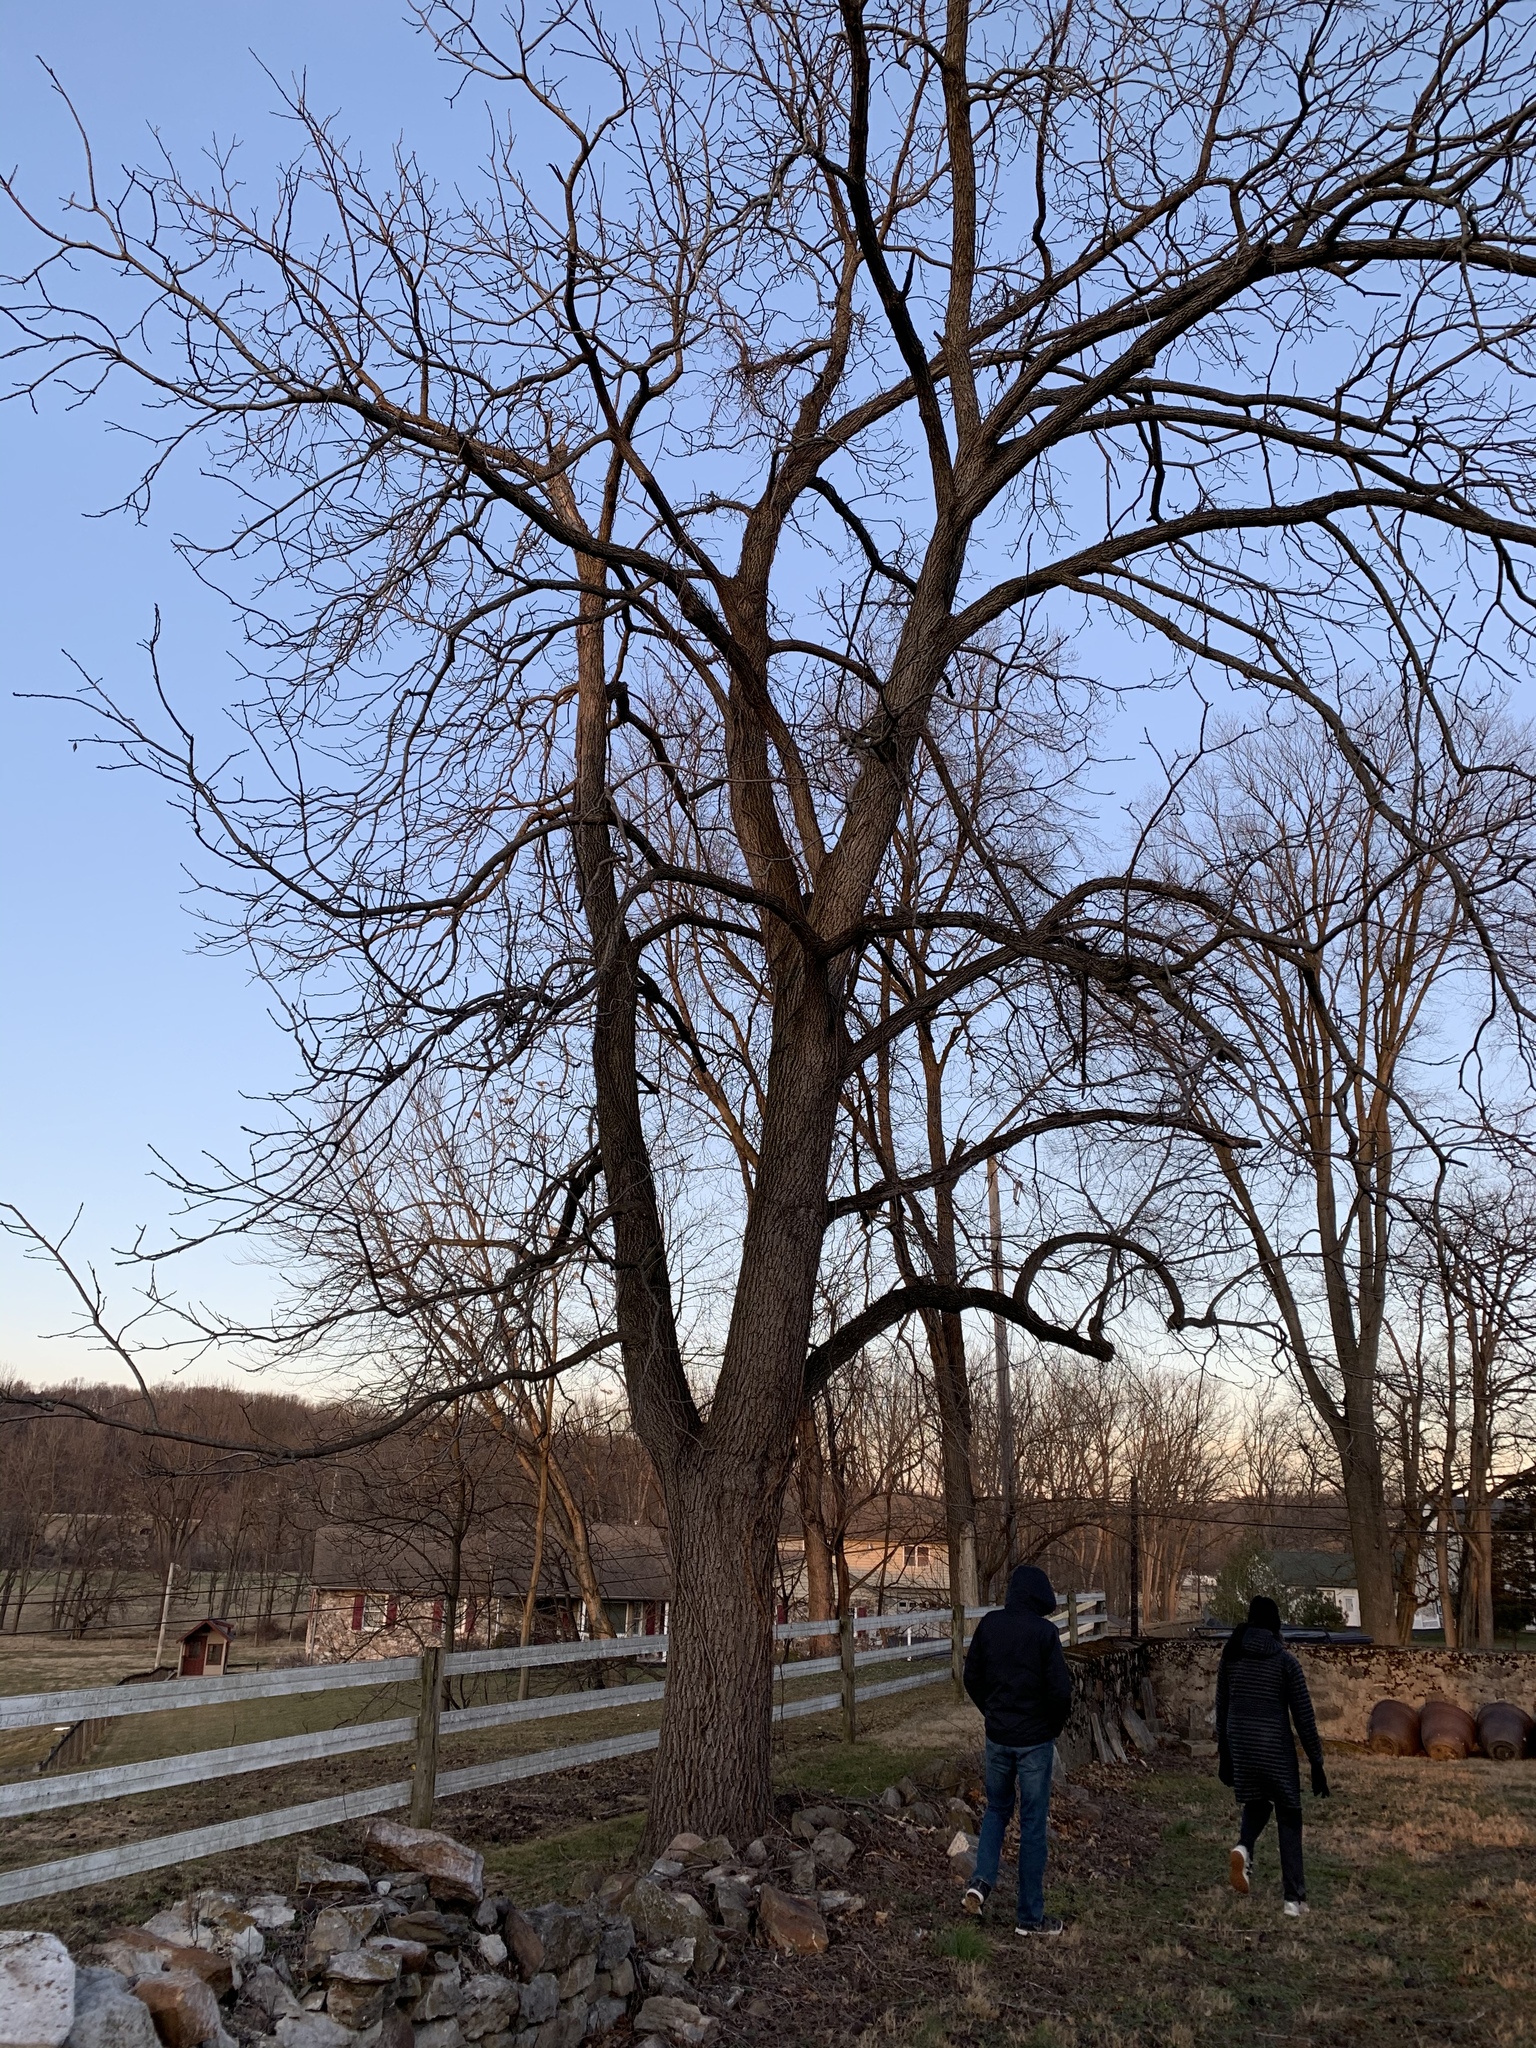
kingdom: Plantae
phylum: Tracheophyta
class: Magnoliopsida
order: Fagales
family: Juglandaceae
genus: Juglans
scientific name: Juglans nigra
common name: Black walnut
